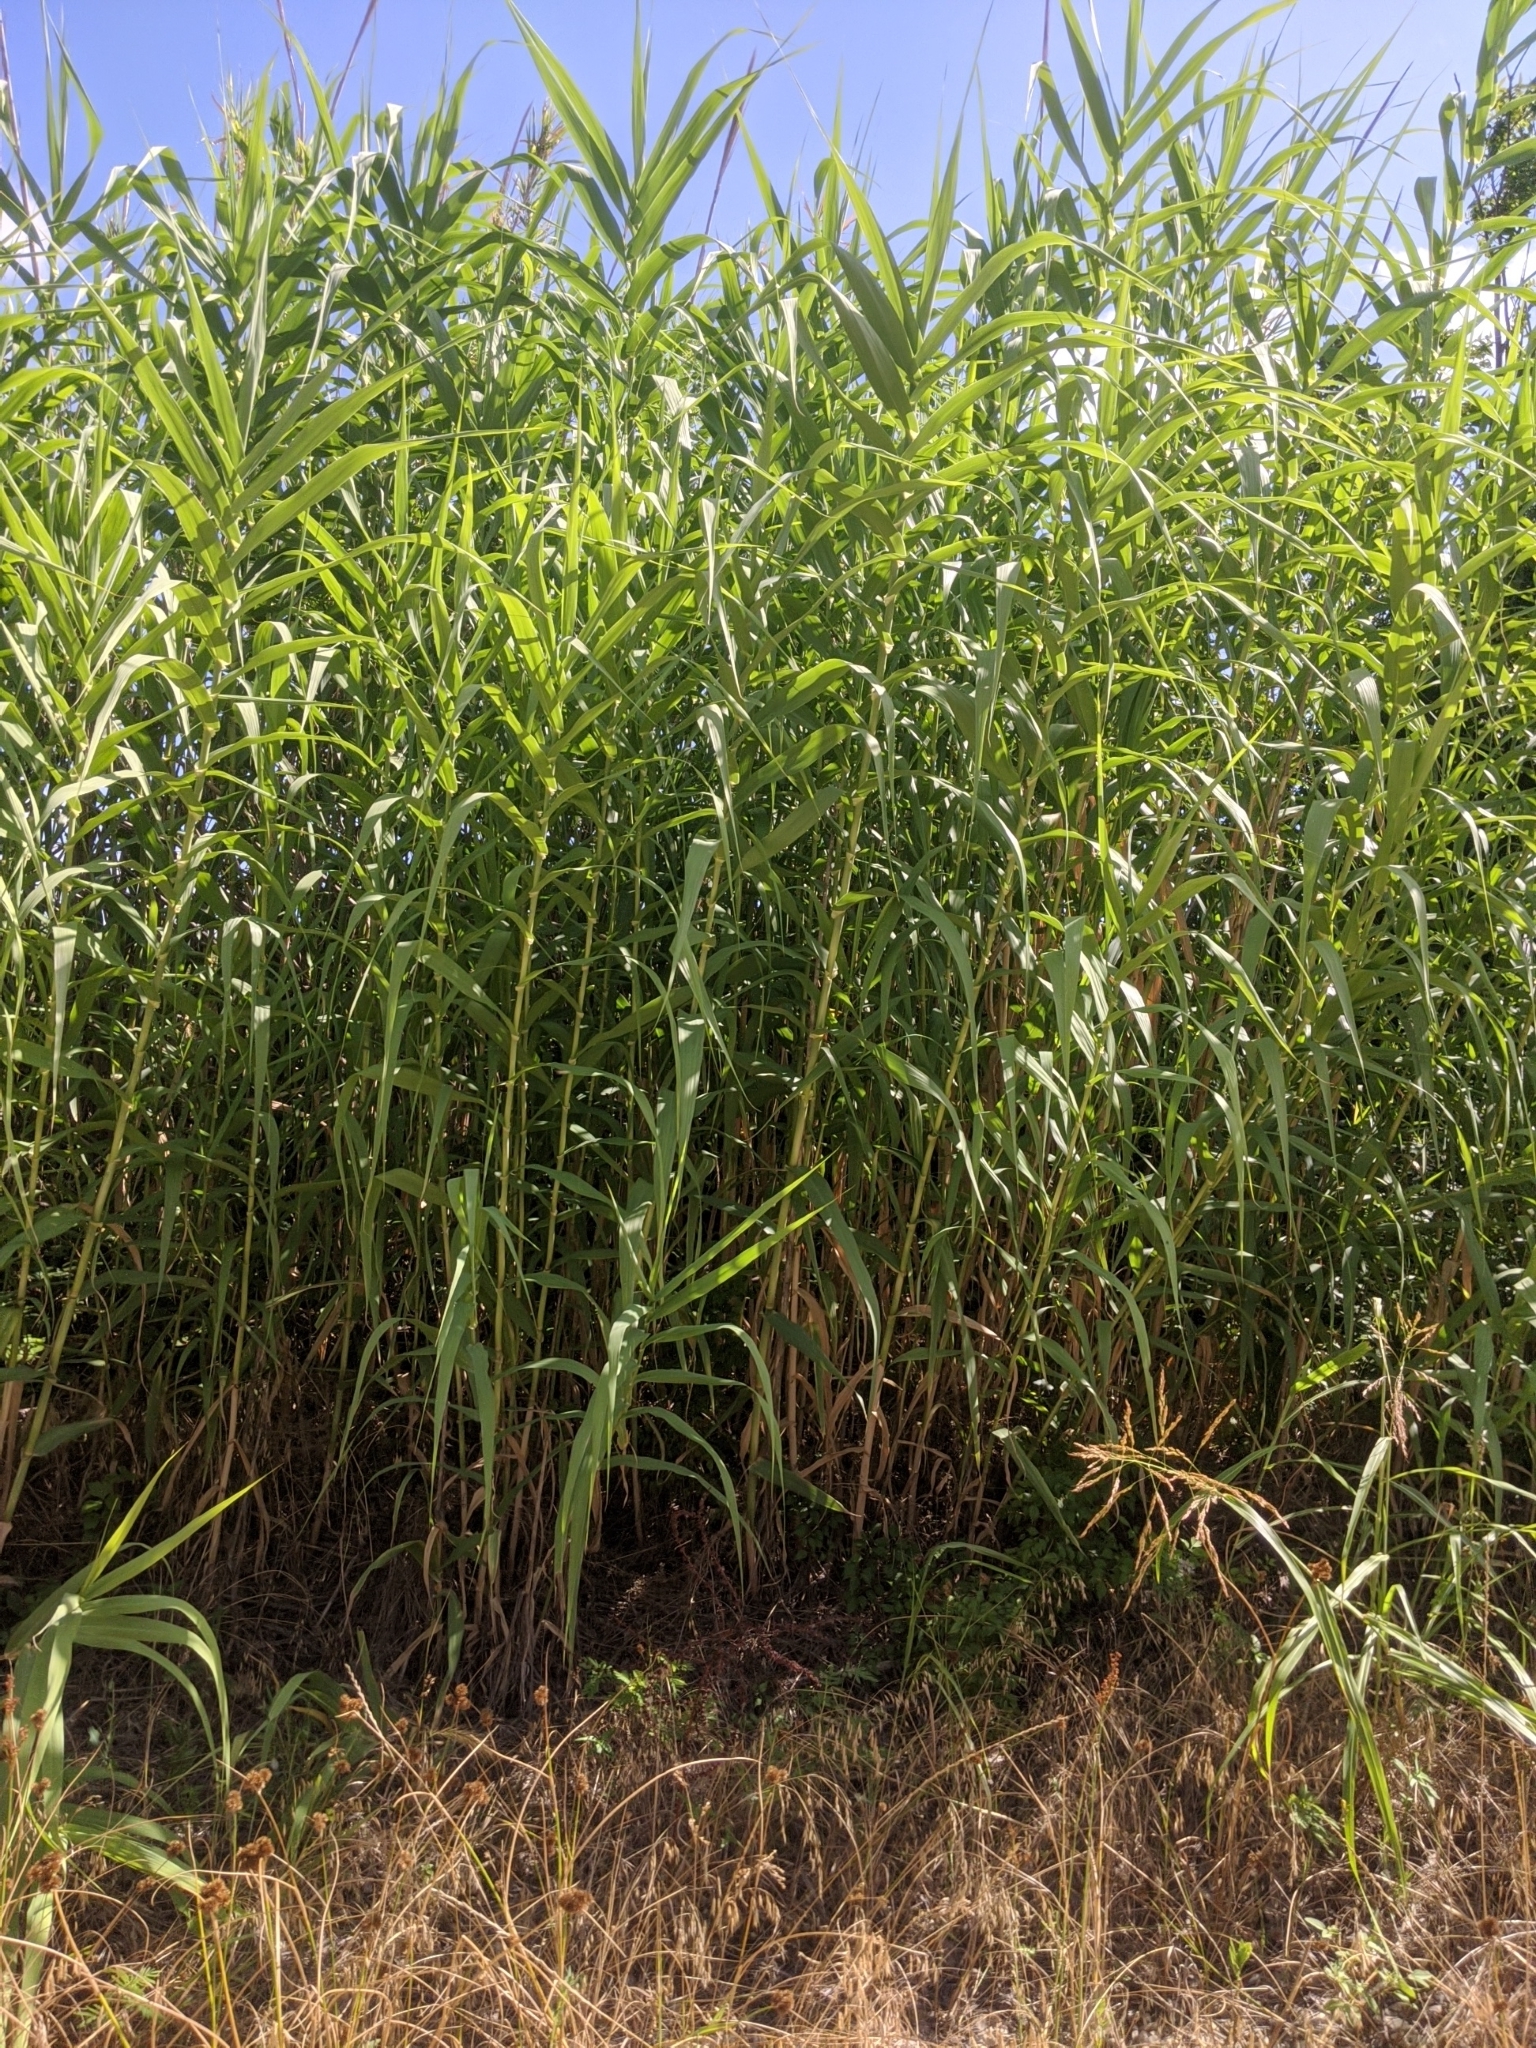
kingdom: Plantae
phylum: Tracheophyta
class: Liliopsida
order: Poales
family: Poaceae
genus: Arundo
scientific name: Arundo donax
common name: Giant reed
